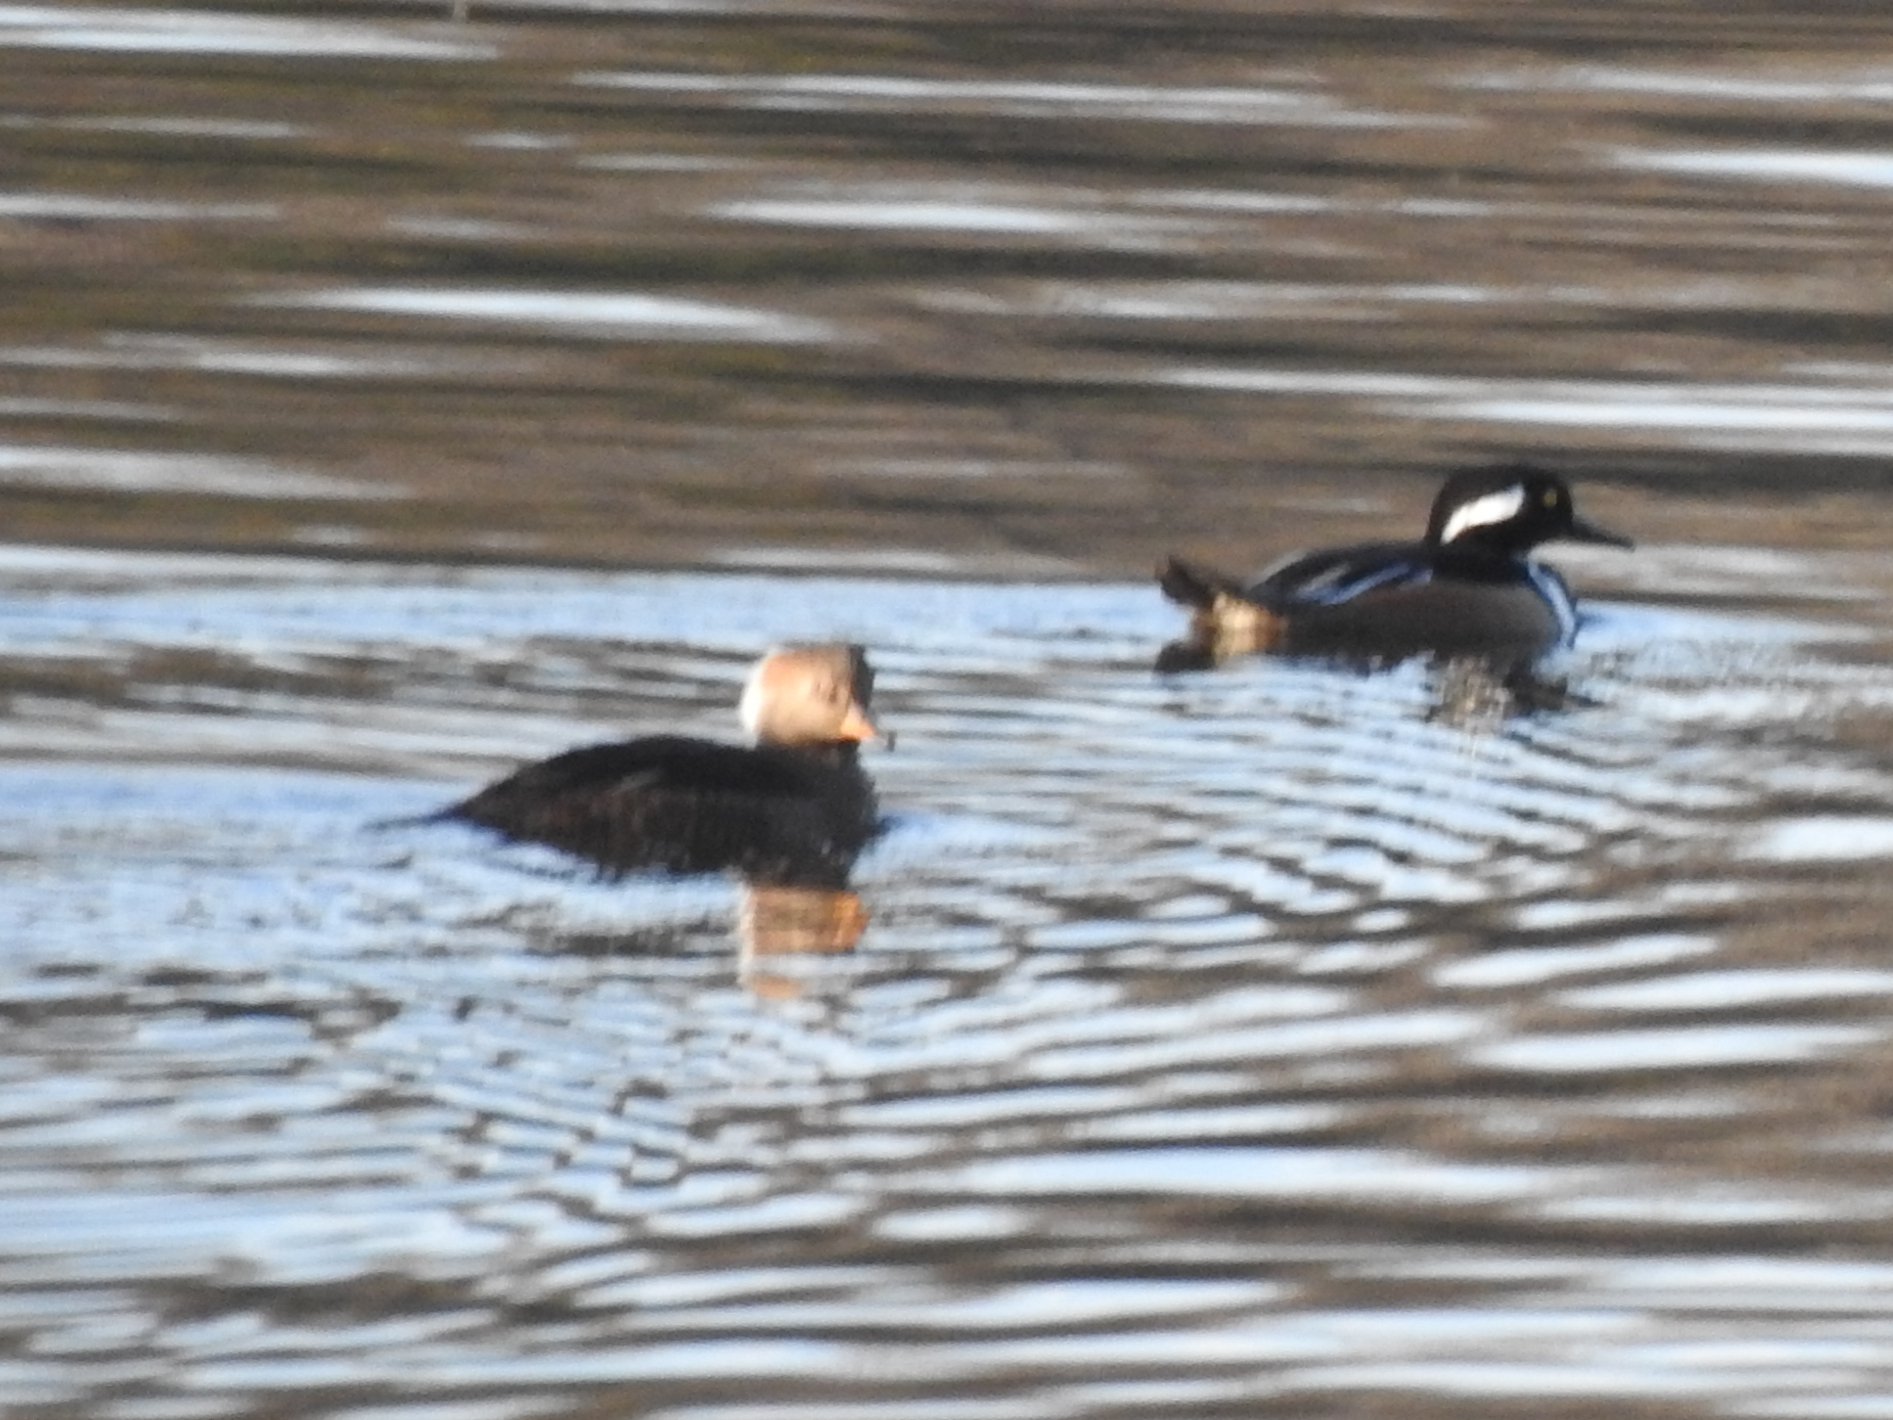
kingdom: Animalia
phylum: Chordata
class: Aves
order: Anseriformes
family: Anatidae
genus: Lophodytes
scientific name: Lophodytes cucullatus
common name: Hooded merganser
